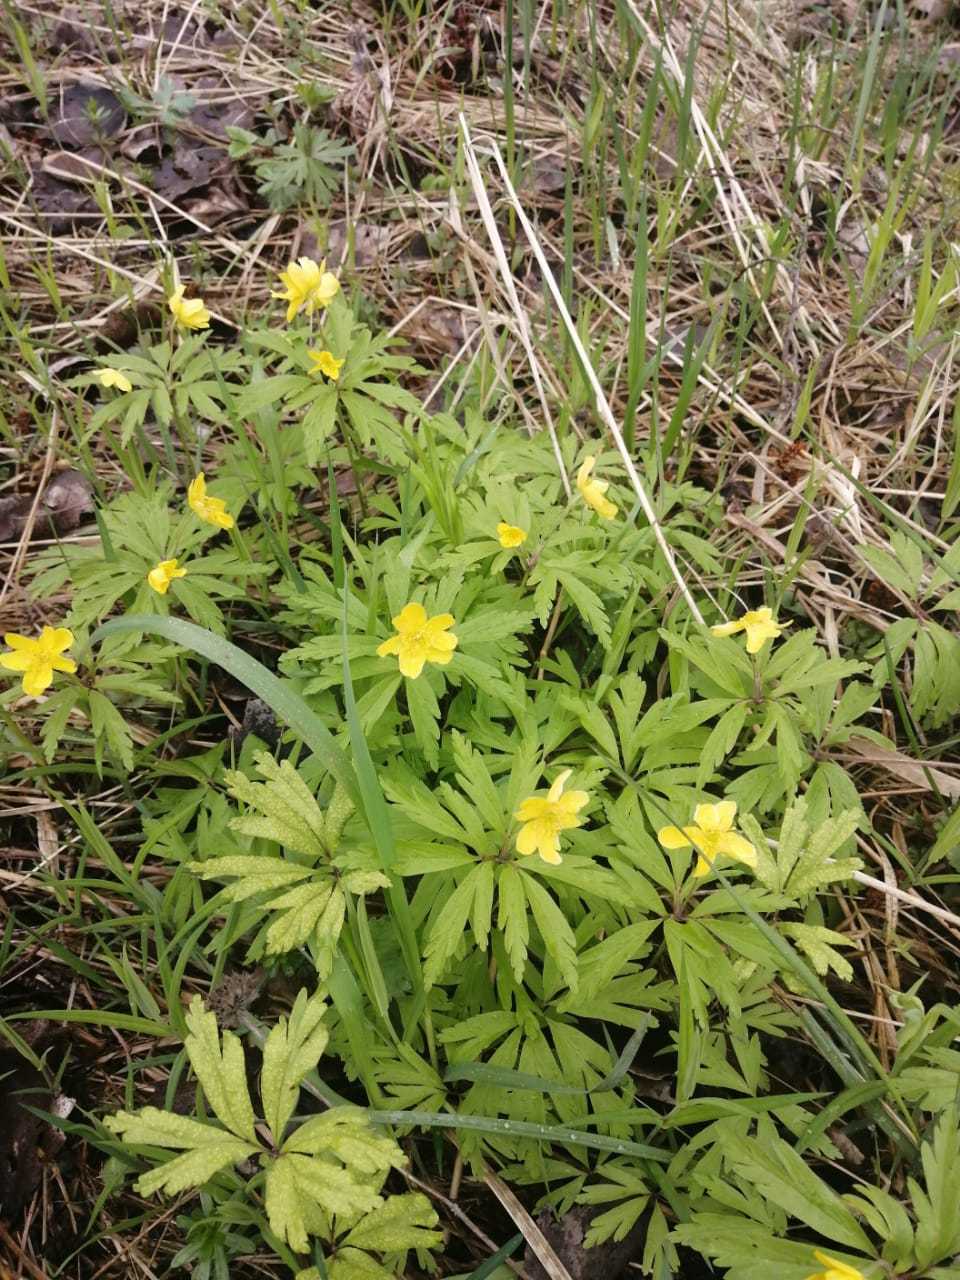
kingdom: Plantae
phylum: Tracheophyta
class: Magnoliopsida
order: Ranunculales
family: Ranunculaceae
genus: Anemone
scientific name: Anemone ranunculoides
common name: Yellow anemone
